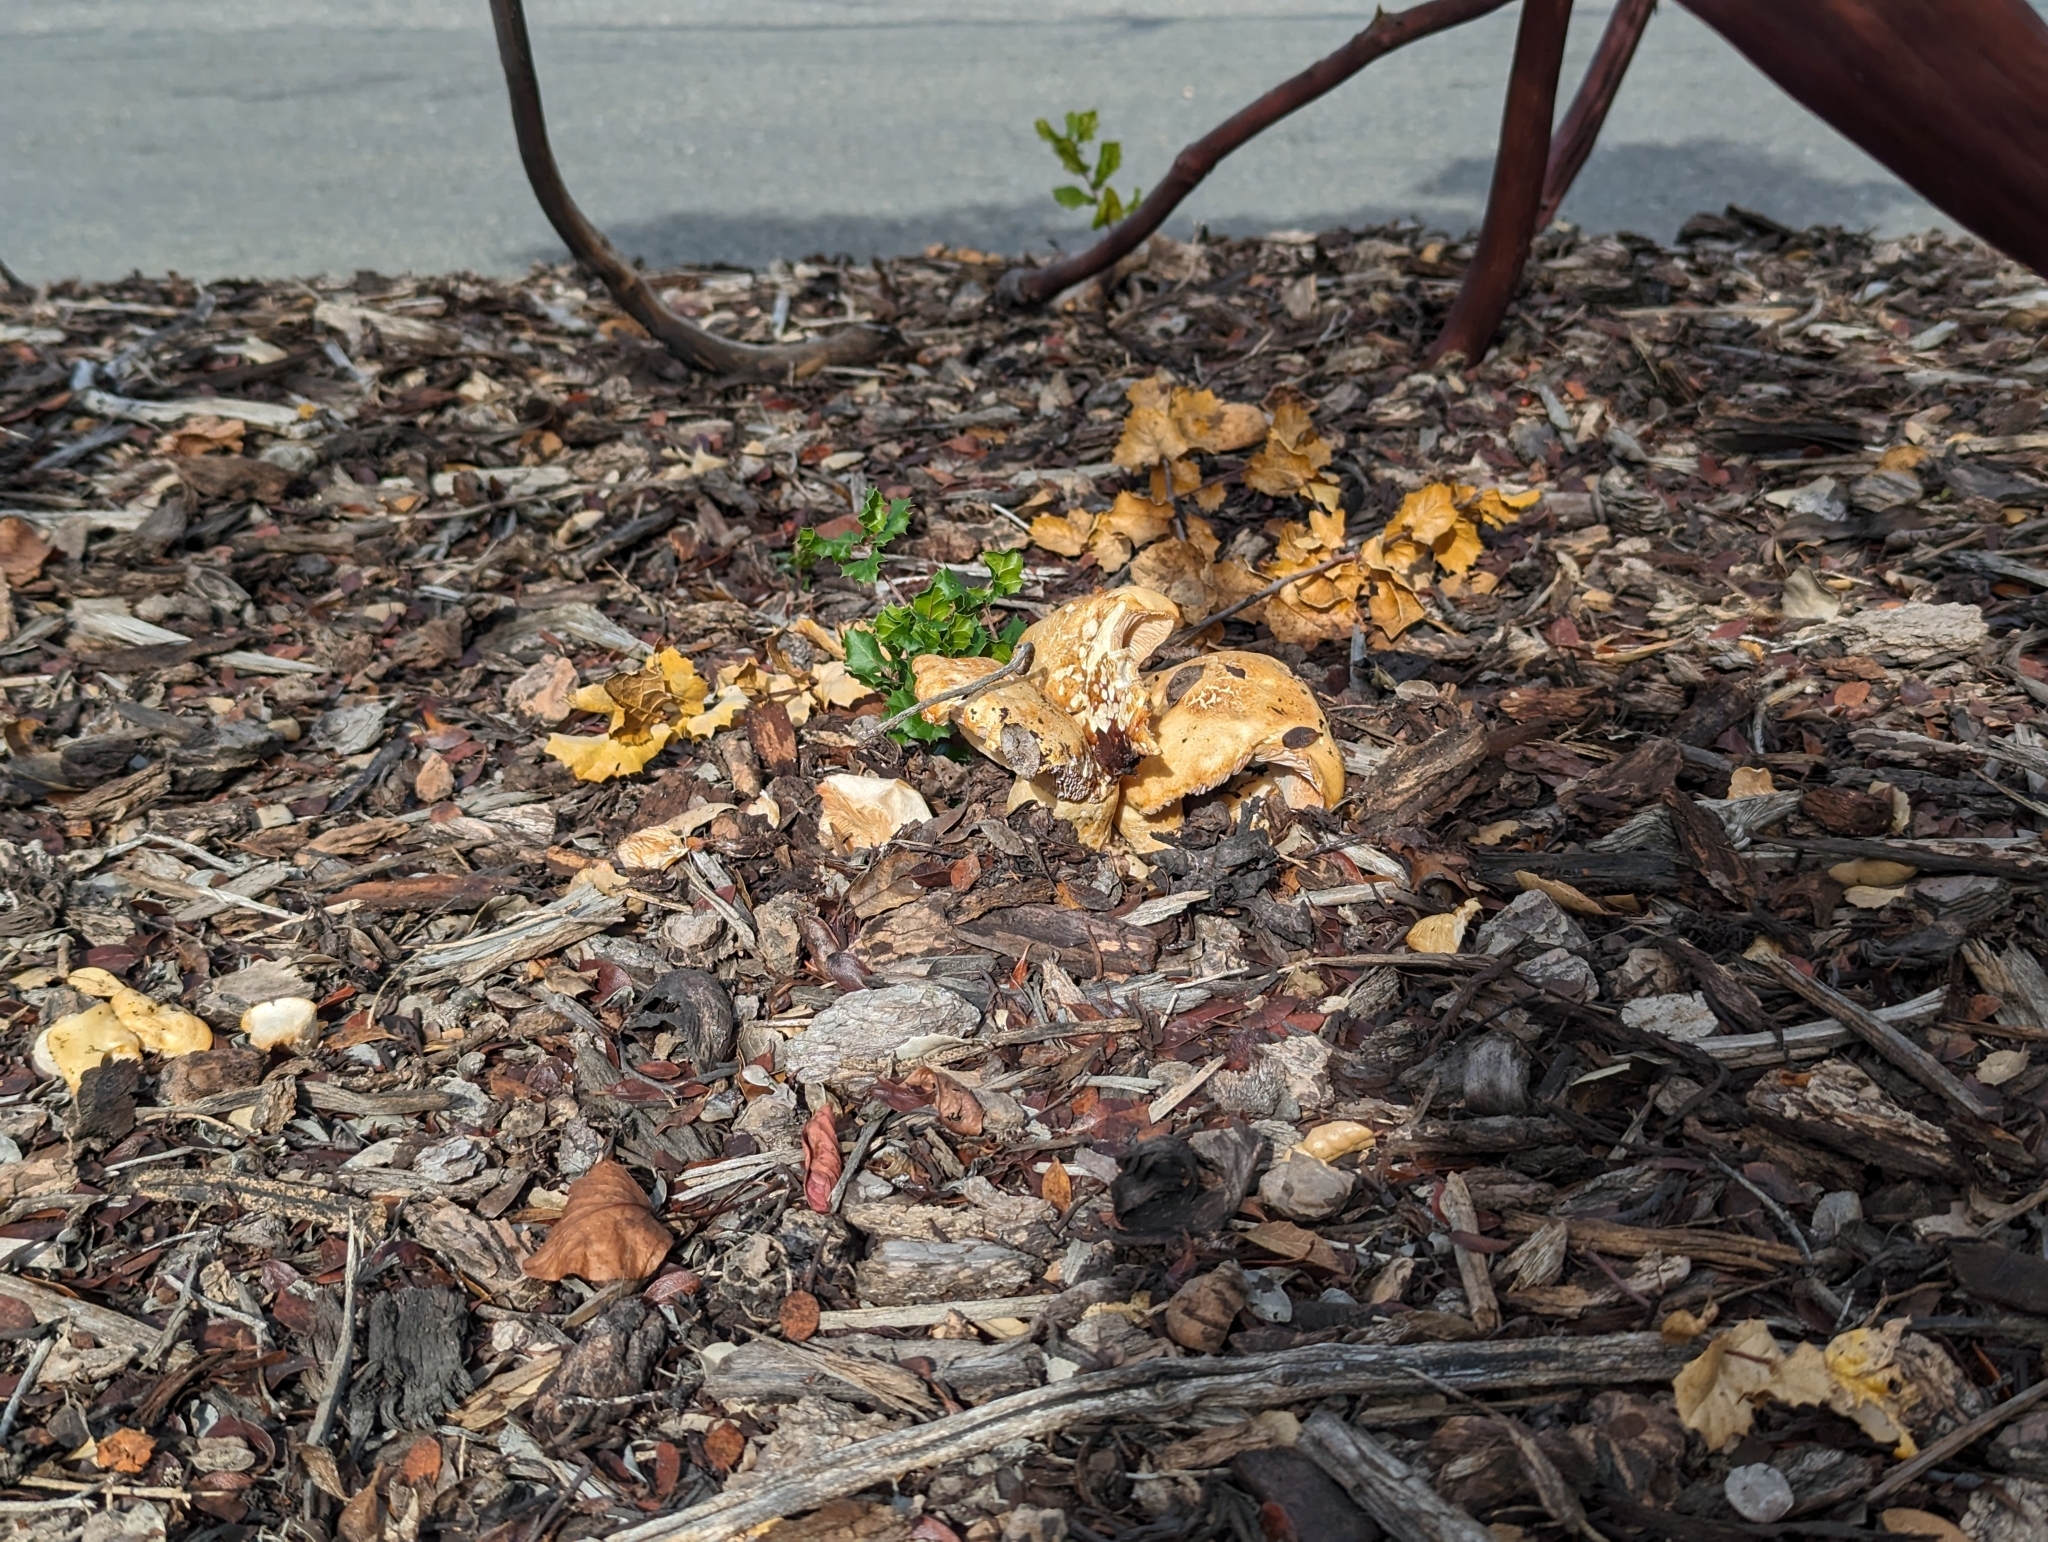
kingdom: Fungi
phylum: Basidiomycota
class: Agaricomycetes
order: Russulales
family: Russulaceae
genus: Lactarius
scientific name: Lactarius alnicola
